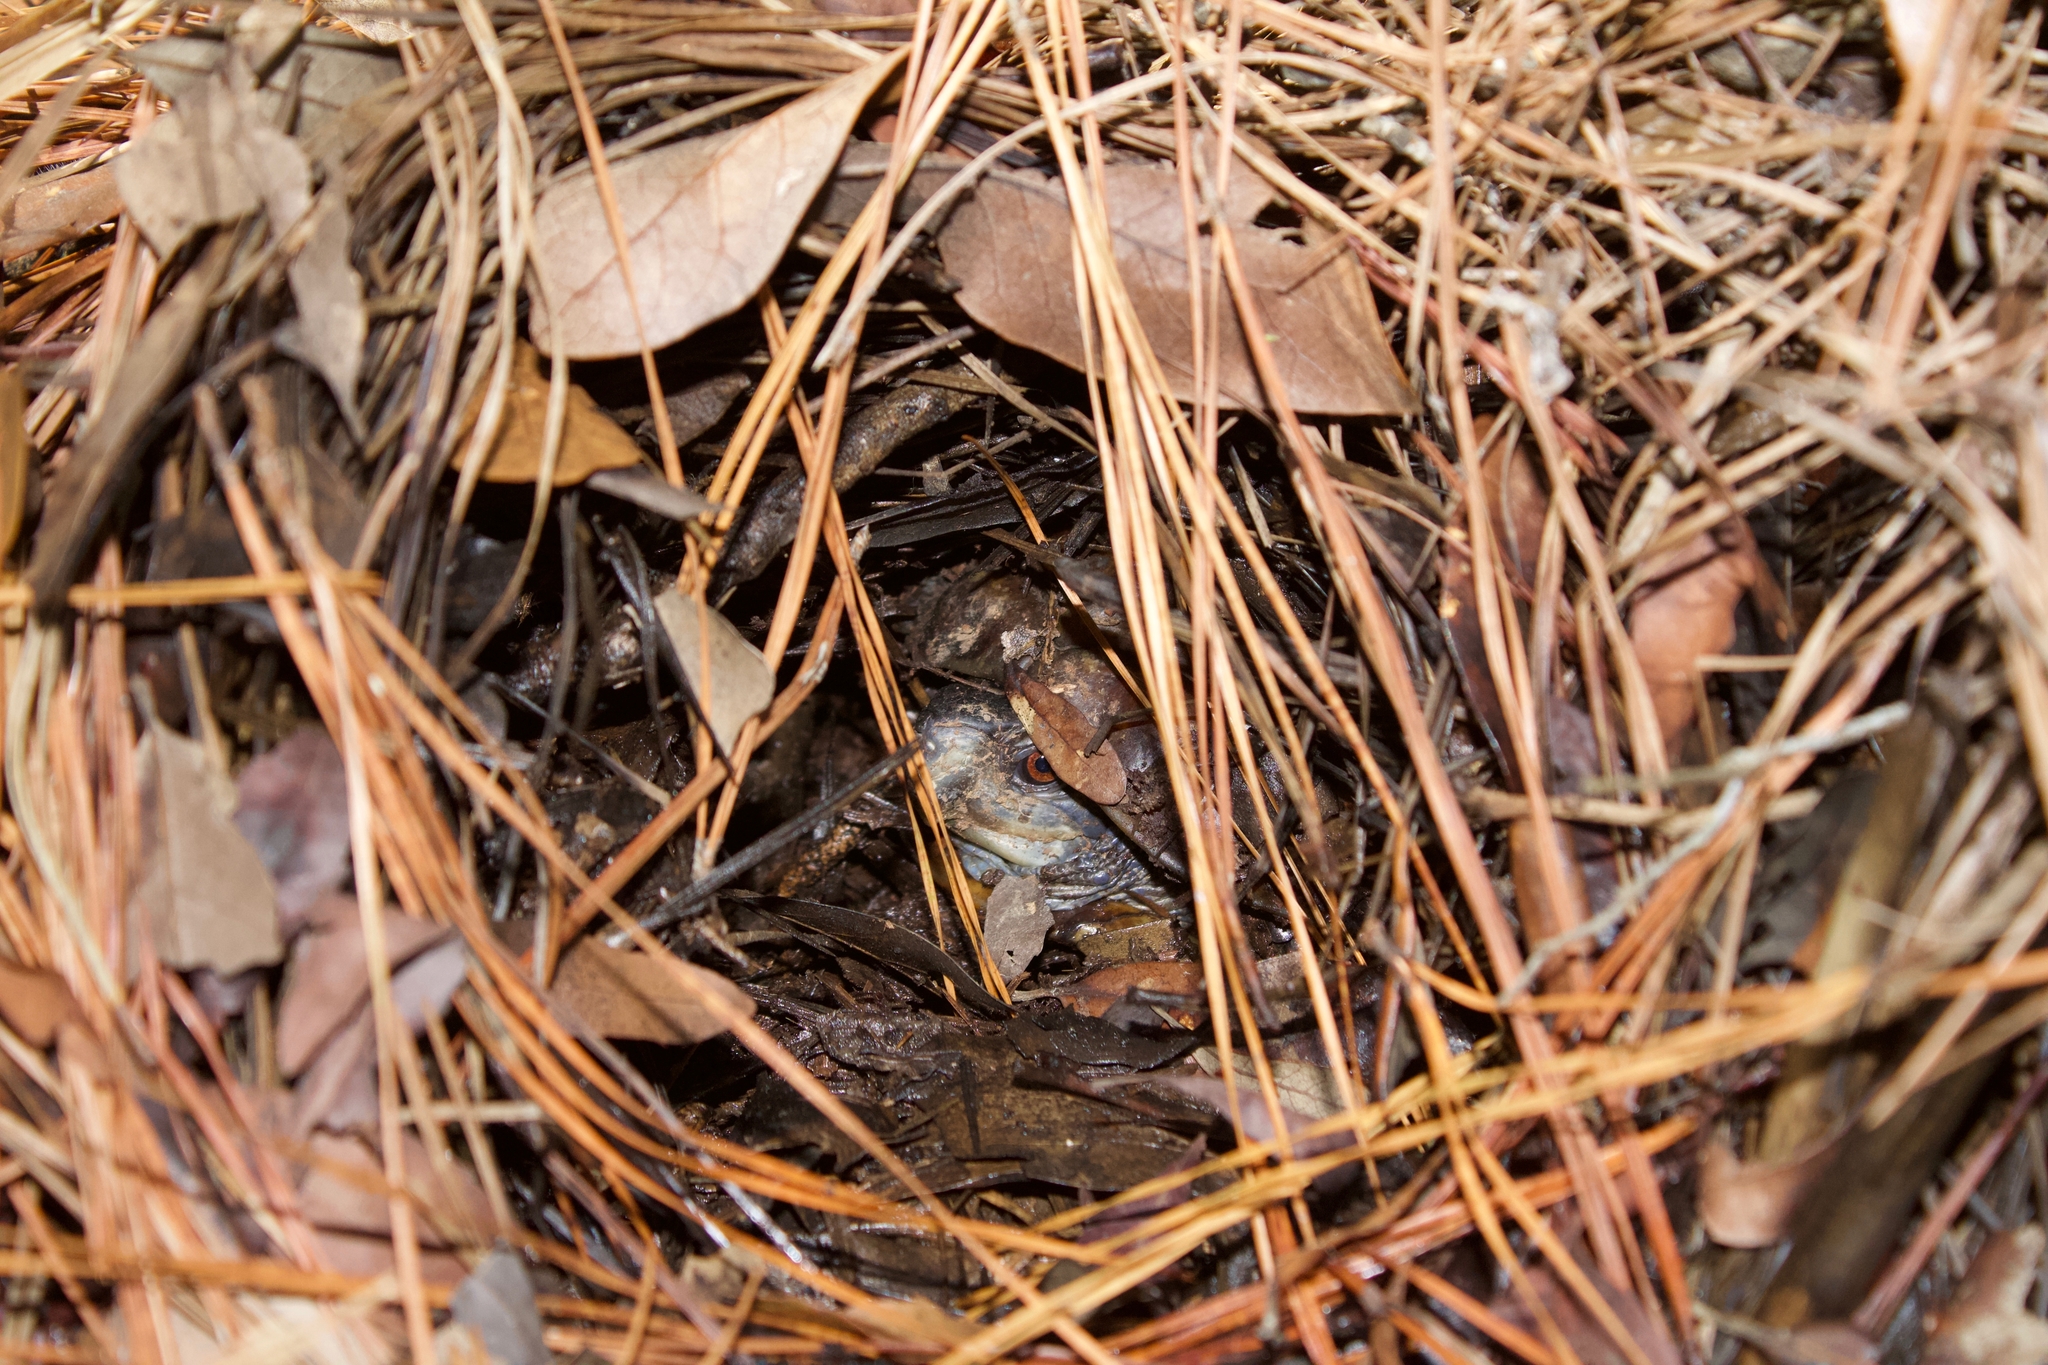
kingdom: Animalia
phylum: Chordata
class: Testudines
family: Emydidae
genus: Terrapene
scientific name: Terrapene carolina
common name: Common box turtle
